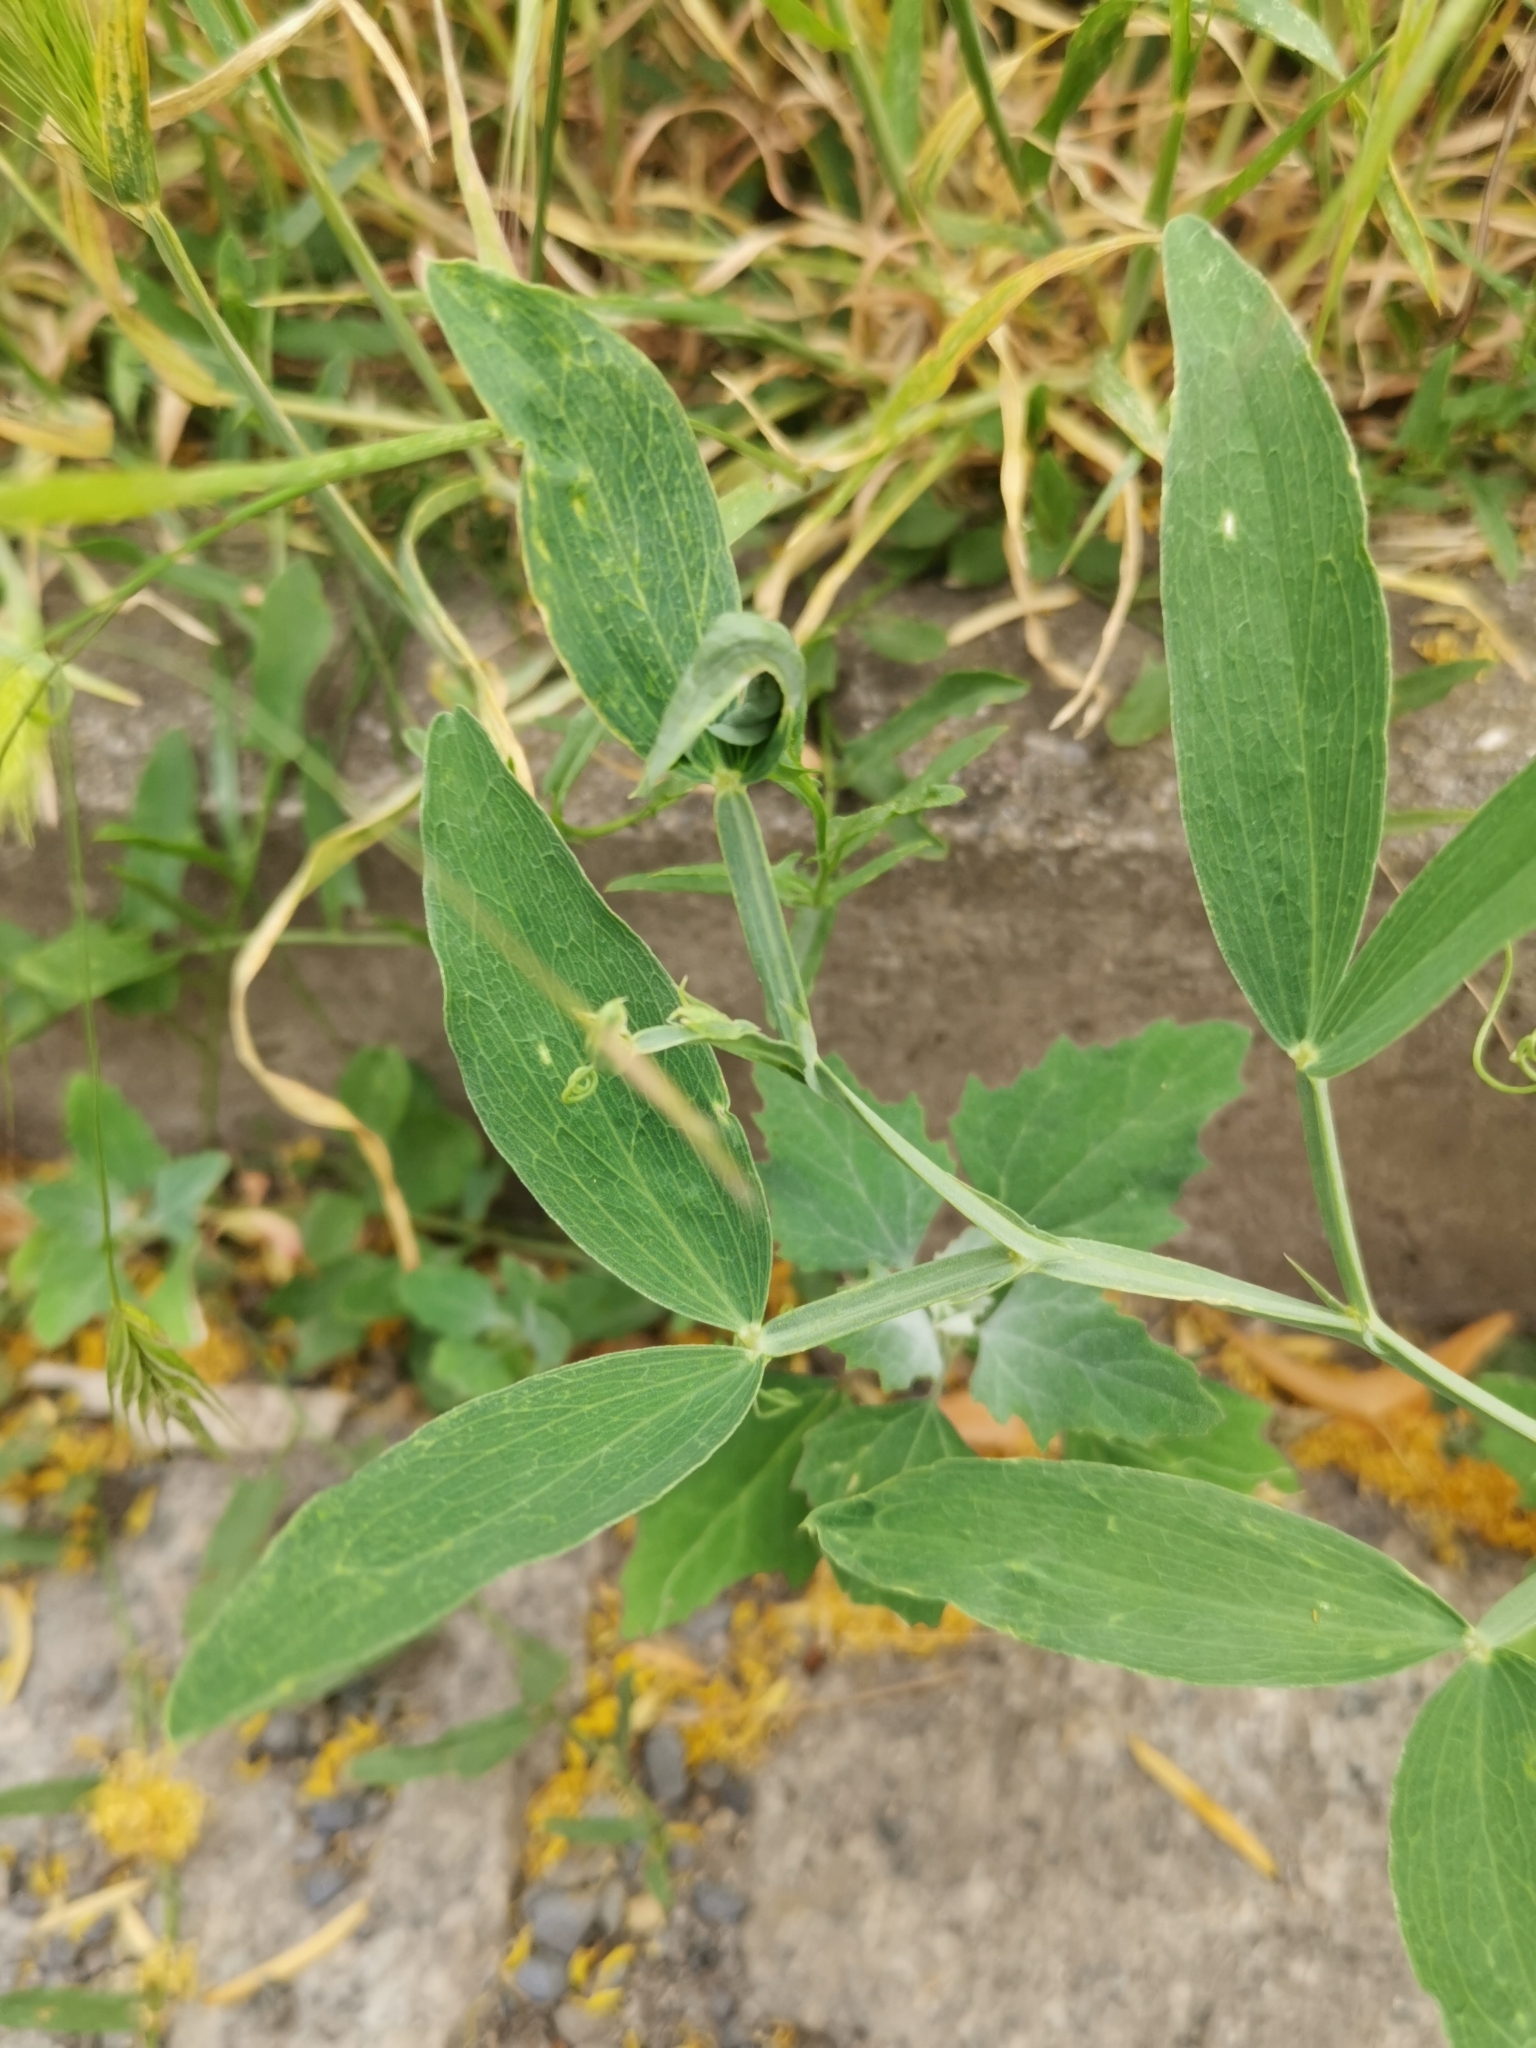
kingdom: Plantae
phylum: Tracheophyta
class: Magnoliopsida
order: Fabales
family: Fabaceae
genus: Lathyrus
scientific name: Lathyrus latifolius
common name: Perennial pea
